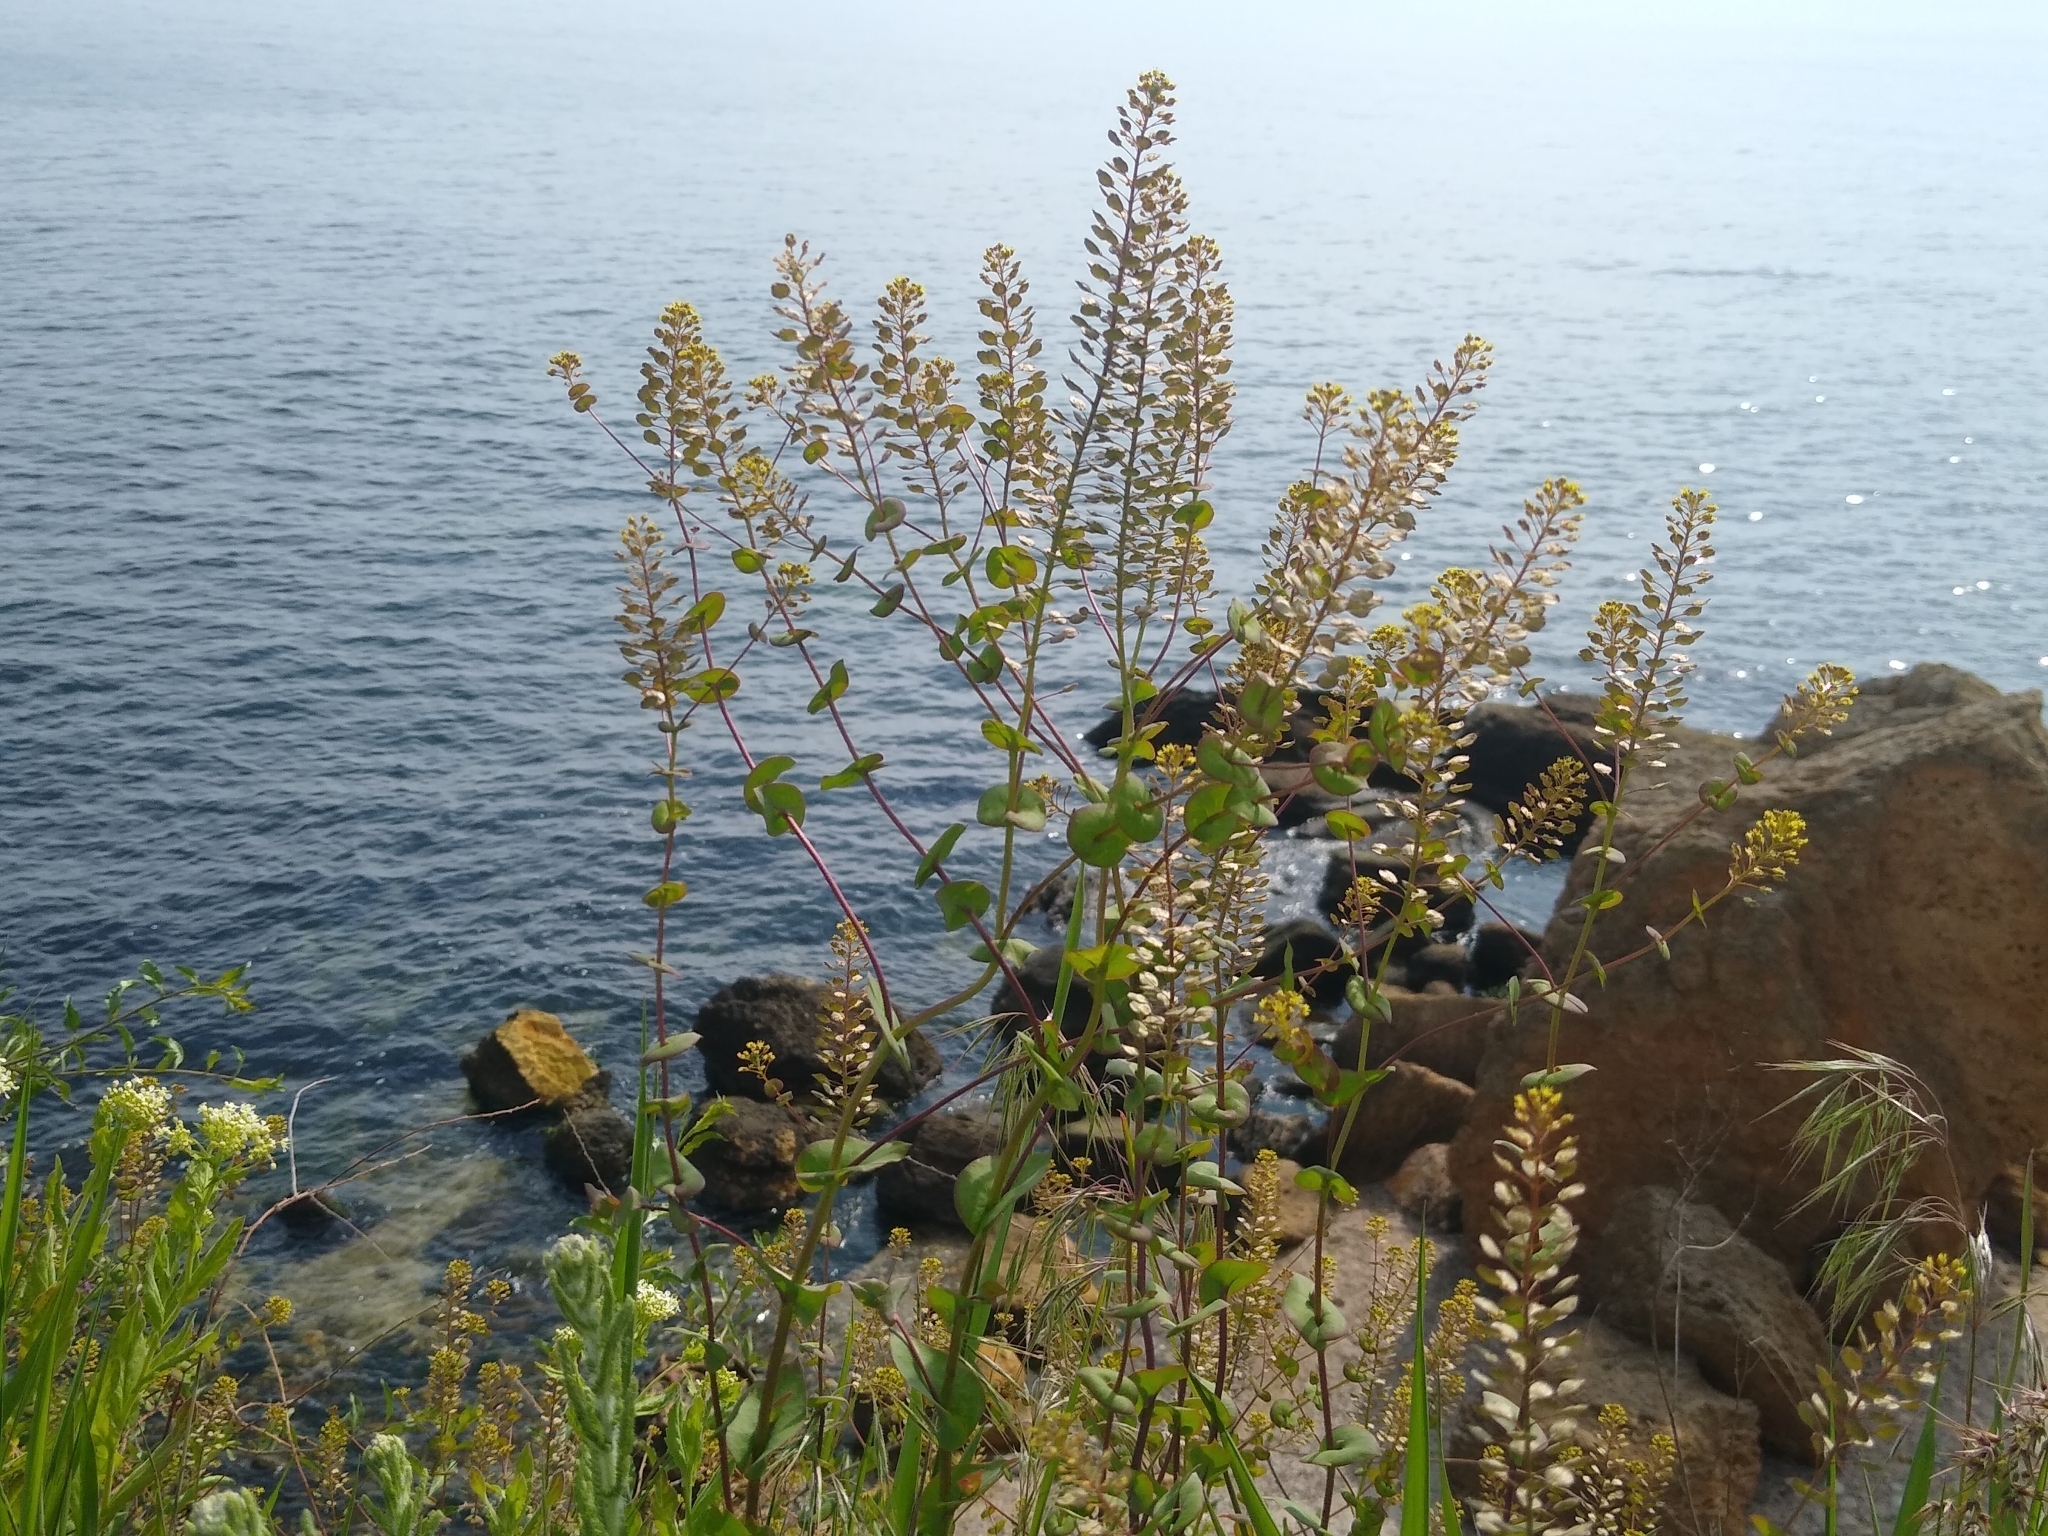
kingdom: Plantae
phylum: Tracheophyta
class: Magnoliopsida
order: Brassicales
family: Brassicaceae
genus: Lepidium
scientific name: Lepidium perfoliatum
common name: Perfoliate pepperwort
